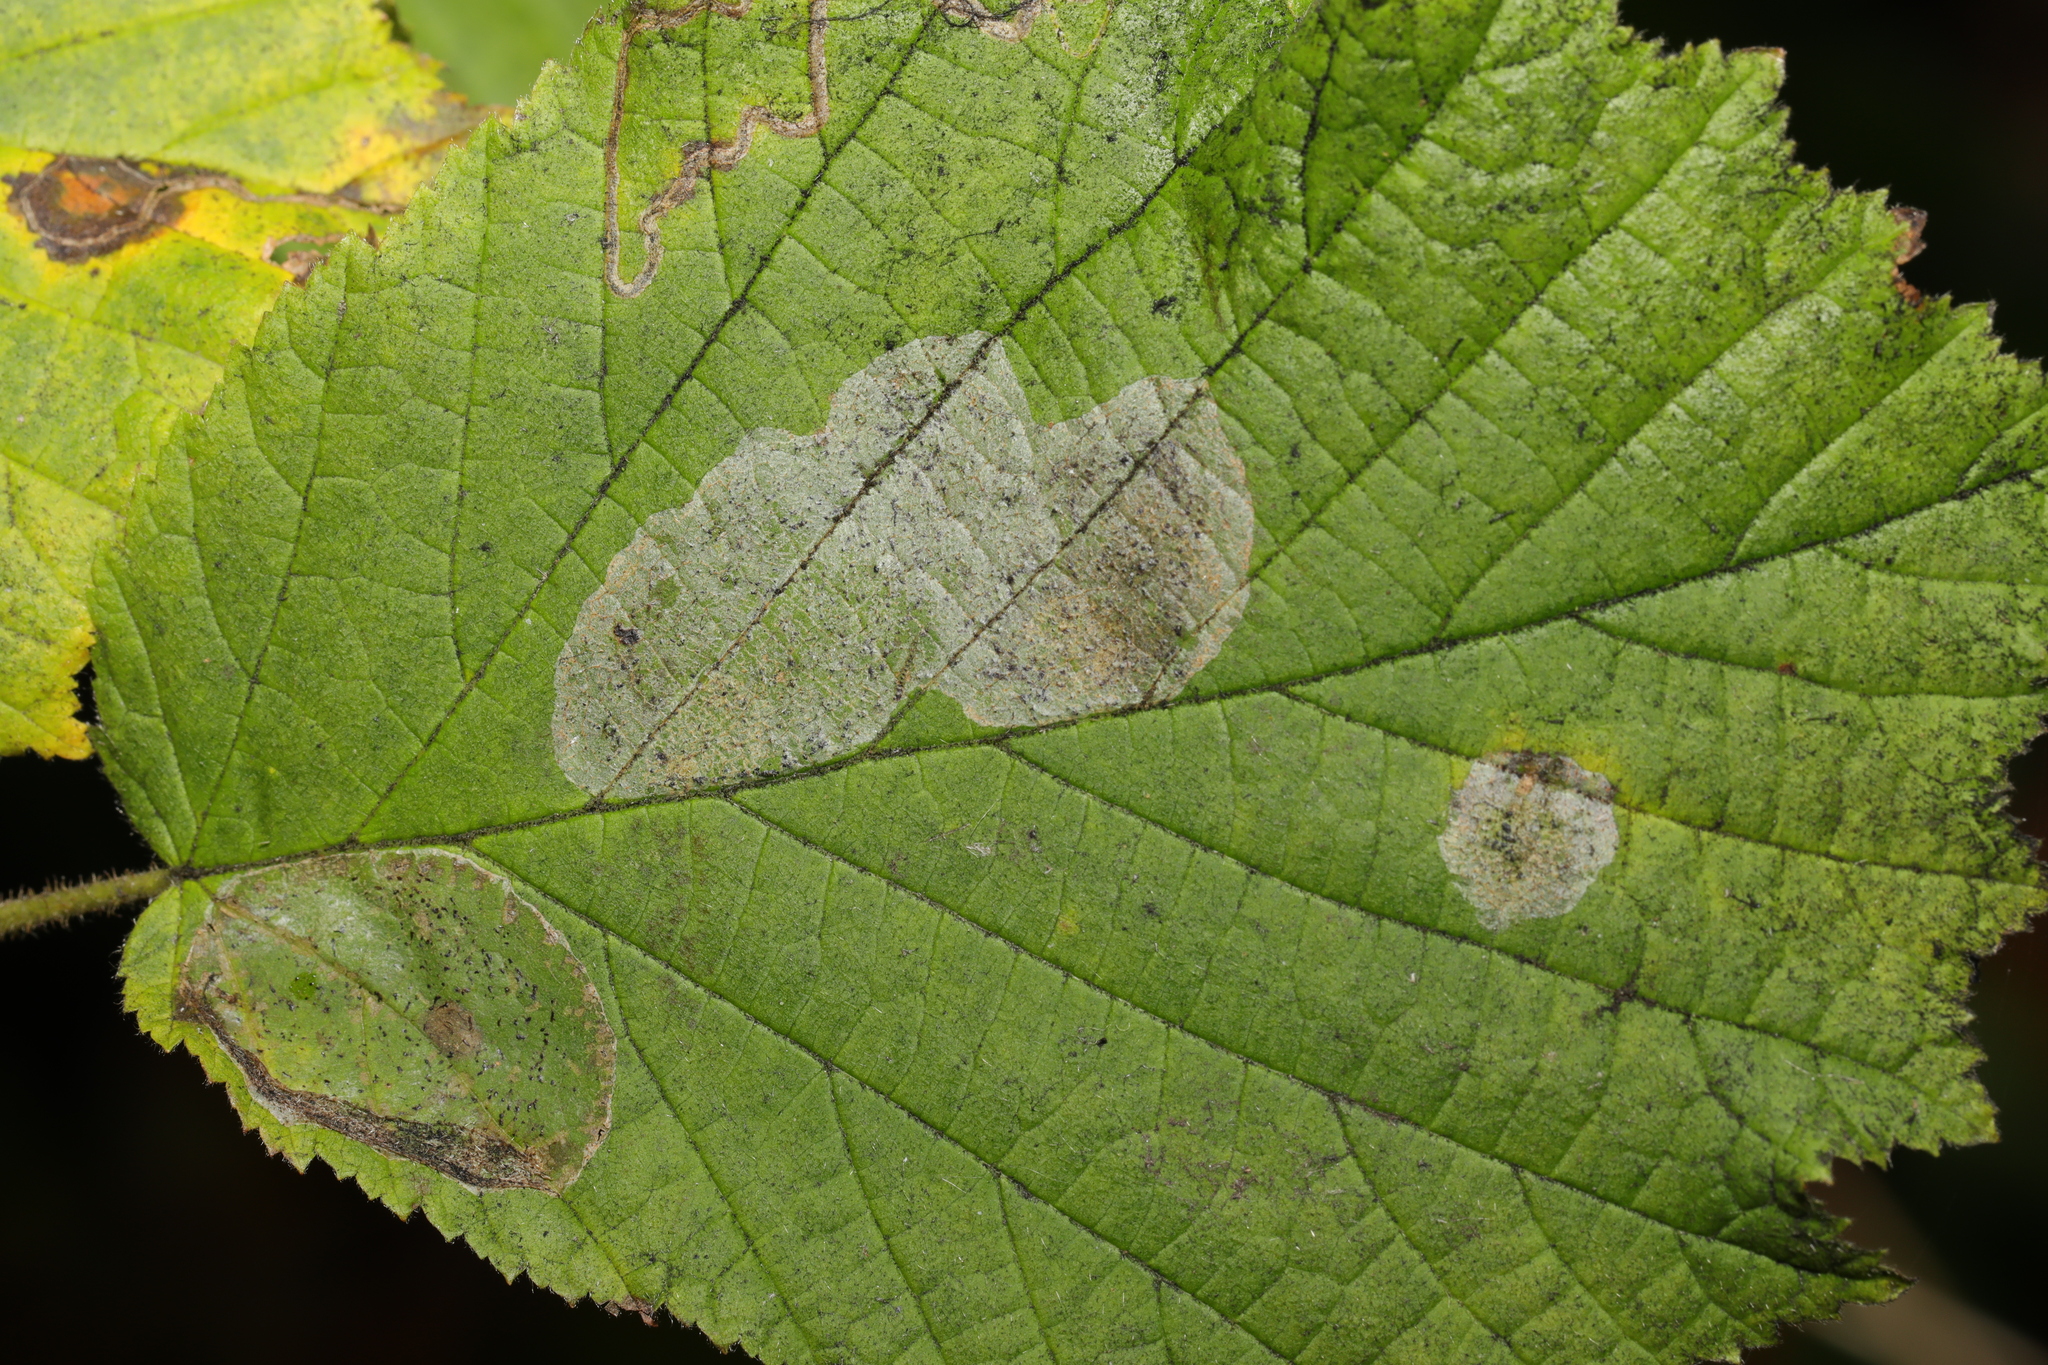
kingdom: Animalia
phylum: Arthropoda
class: Insecta
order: Lepidoptera
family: Gracillariidae
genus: Phyllonorycter
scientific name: Phyllonorycter coryli
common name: Nut-leaf blister moth
